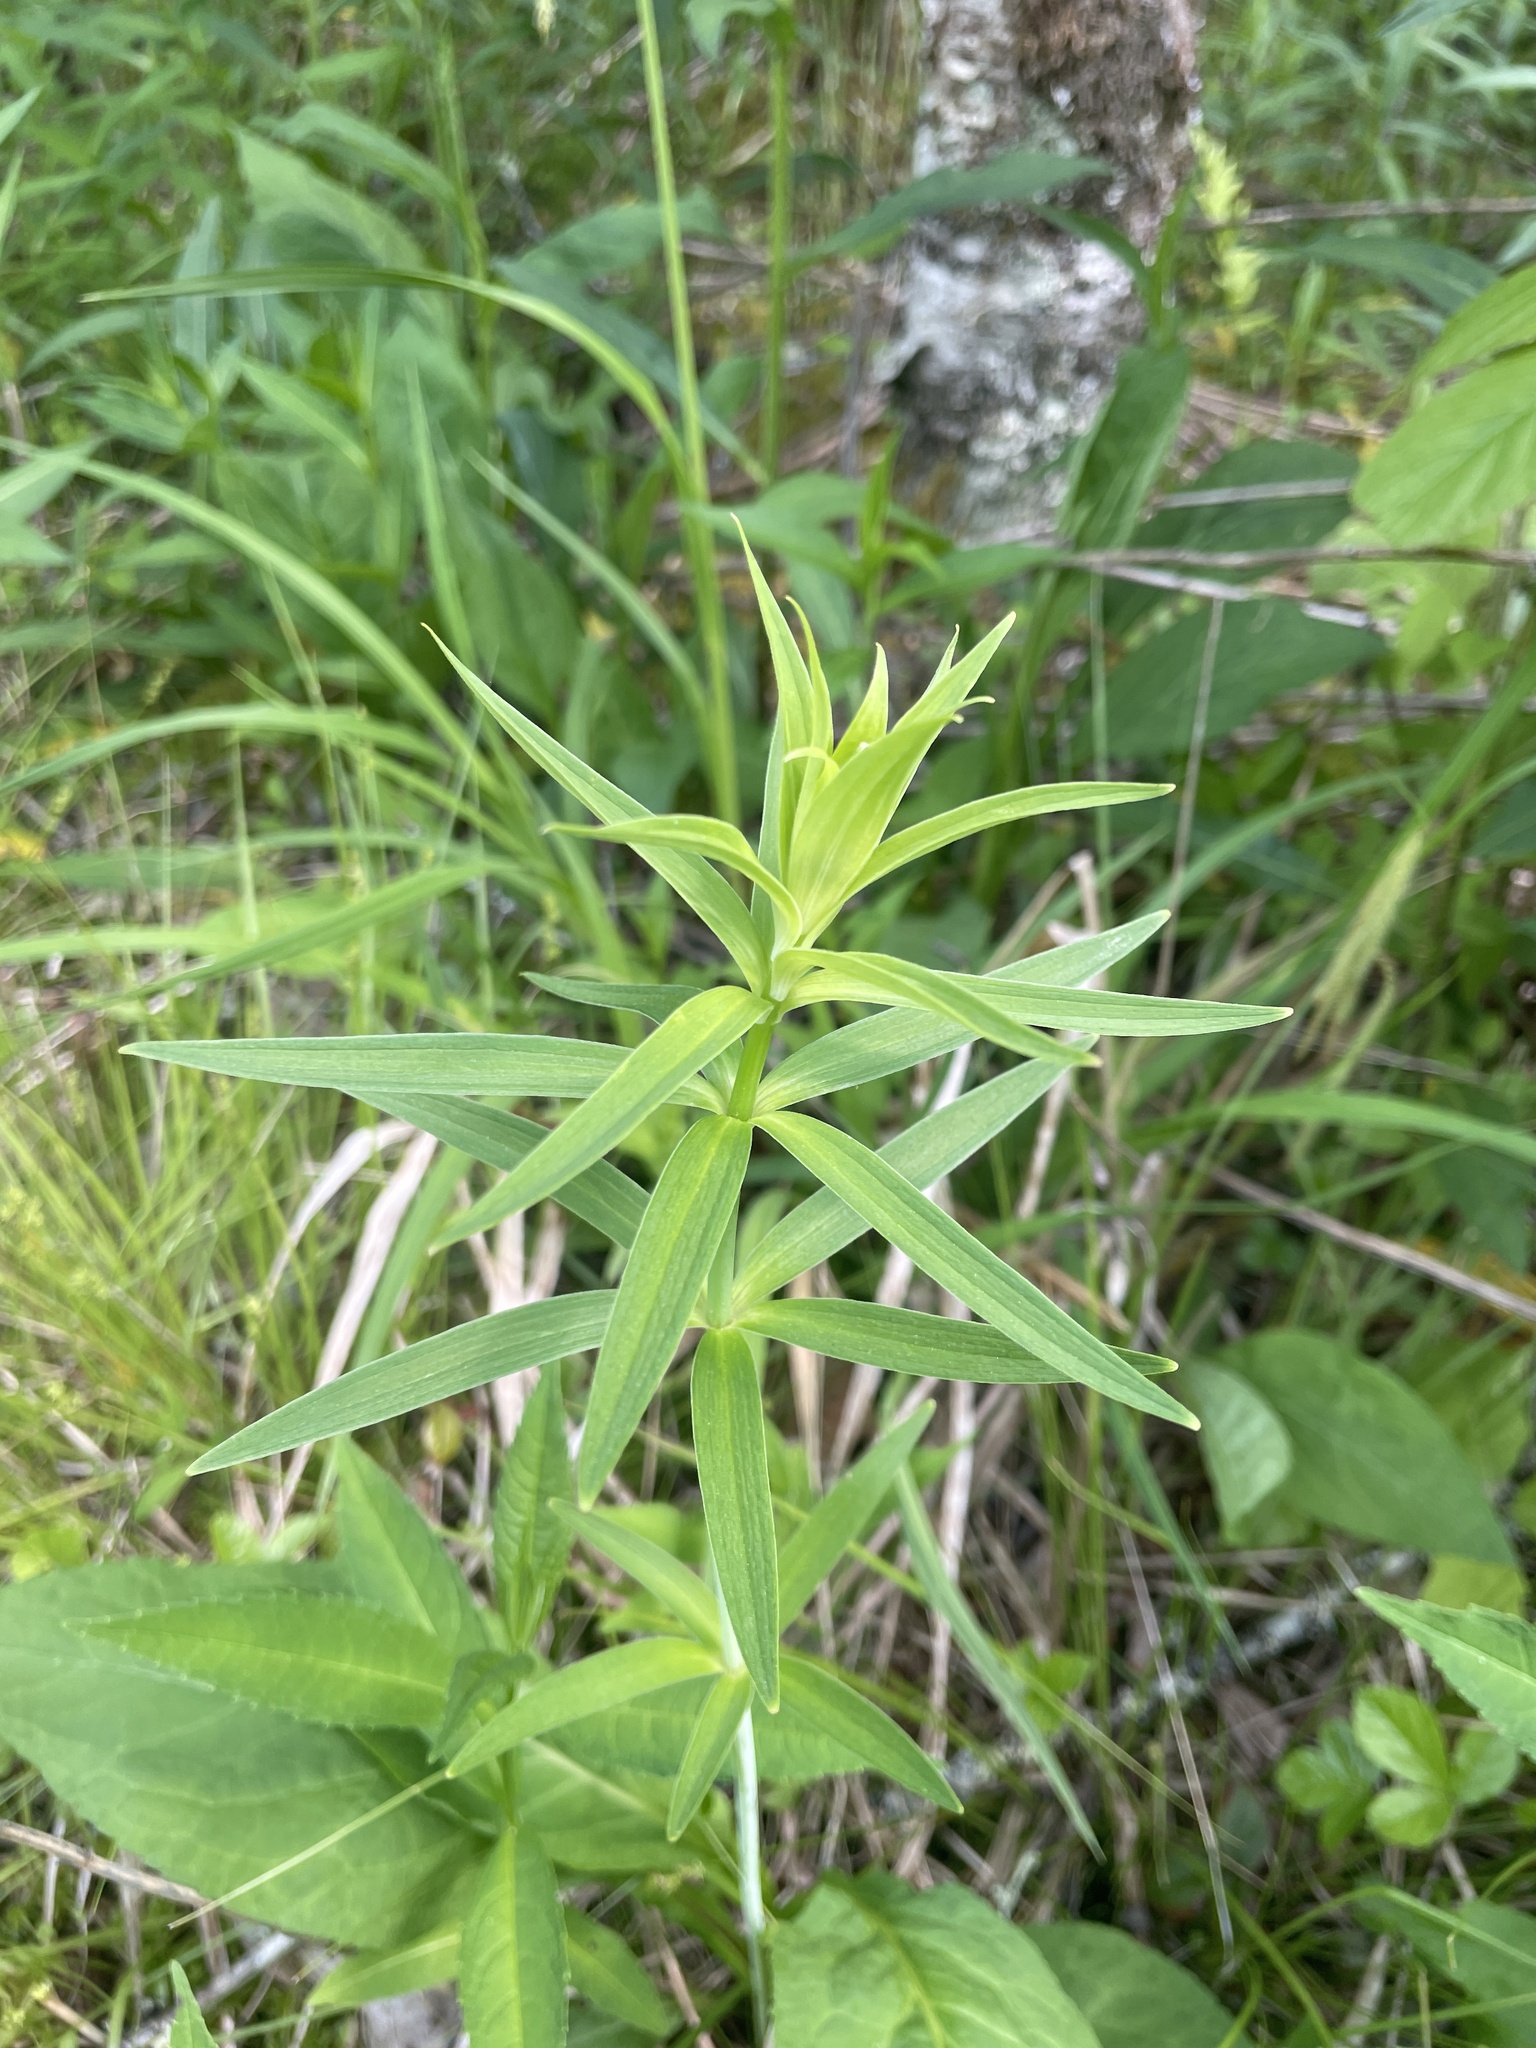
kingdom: Plantae
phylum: Tracheophyta
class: Liliopsida
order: Liliales
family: Liliaceae
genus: Lilium
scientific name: Lilium grayi
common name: Gray's lily
